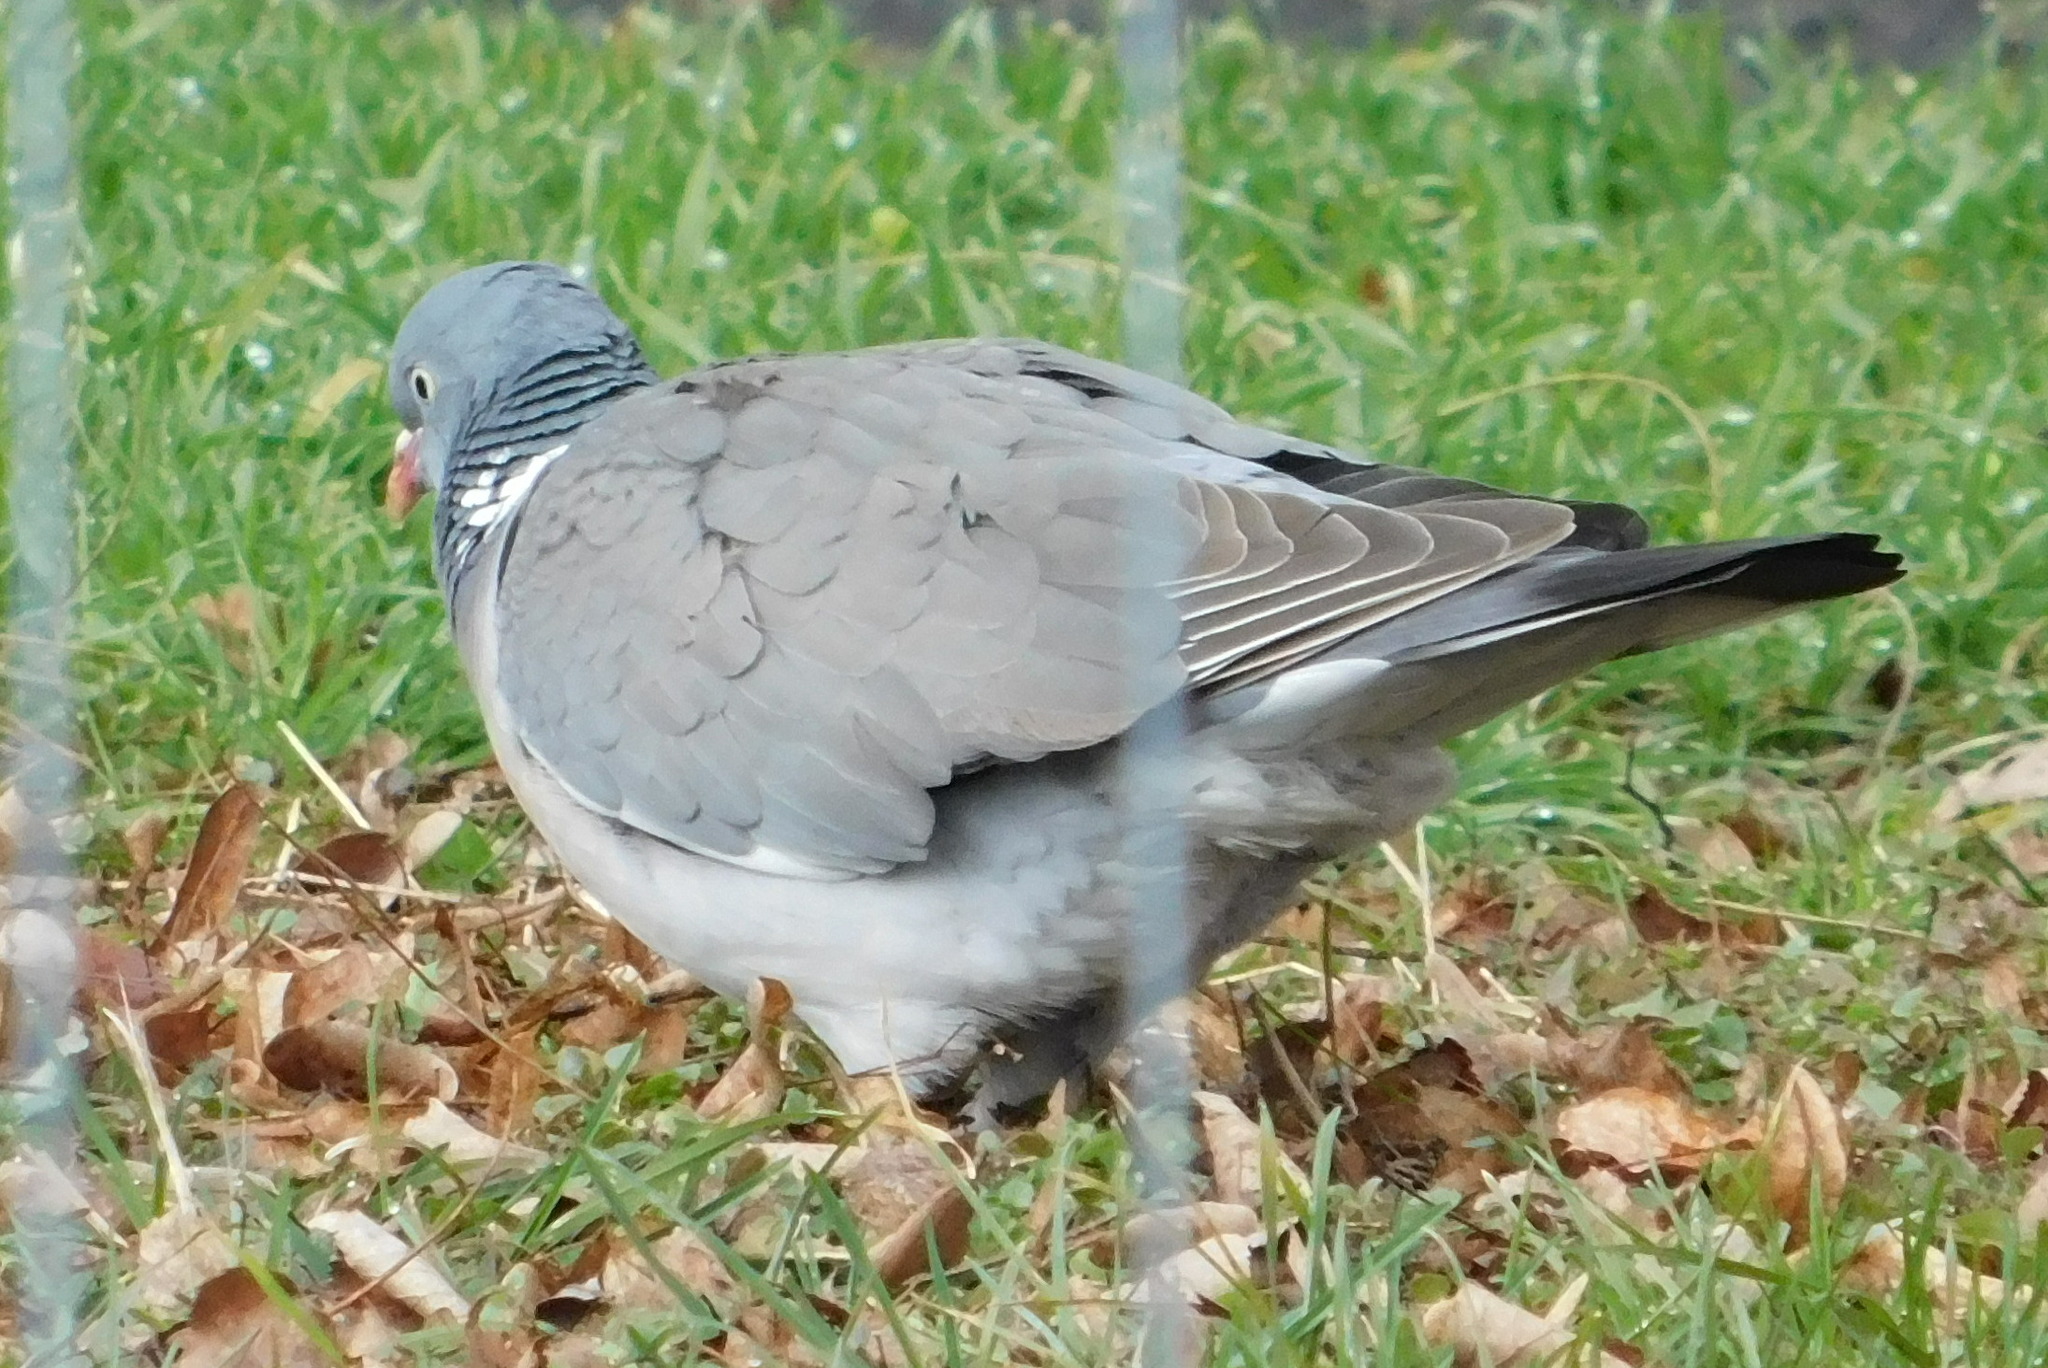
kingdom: Animalia
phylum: Chordata
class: Aves
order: Columbiformes
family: Columbidae
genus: Columba
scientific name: Columba palumbus
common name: Common wood pigeon
